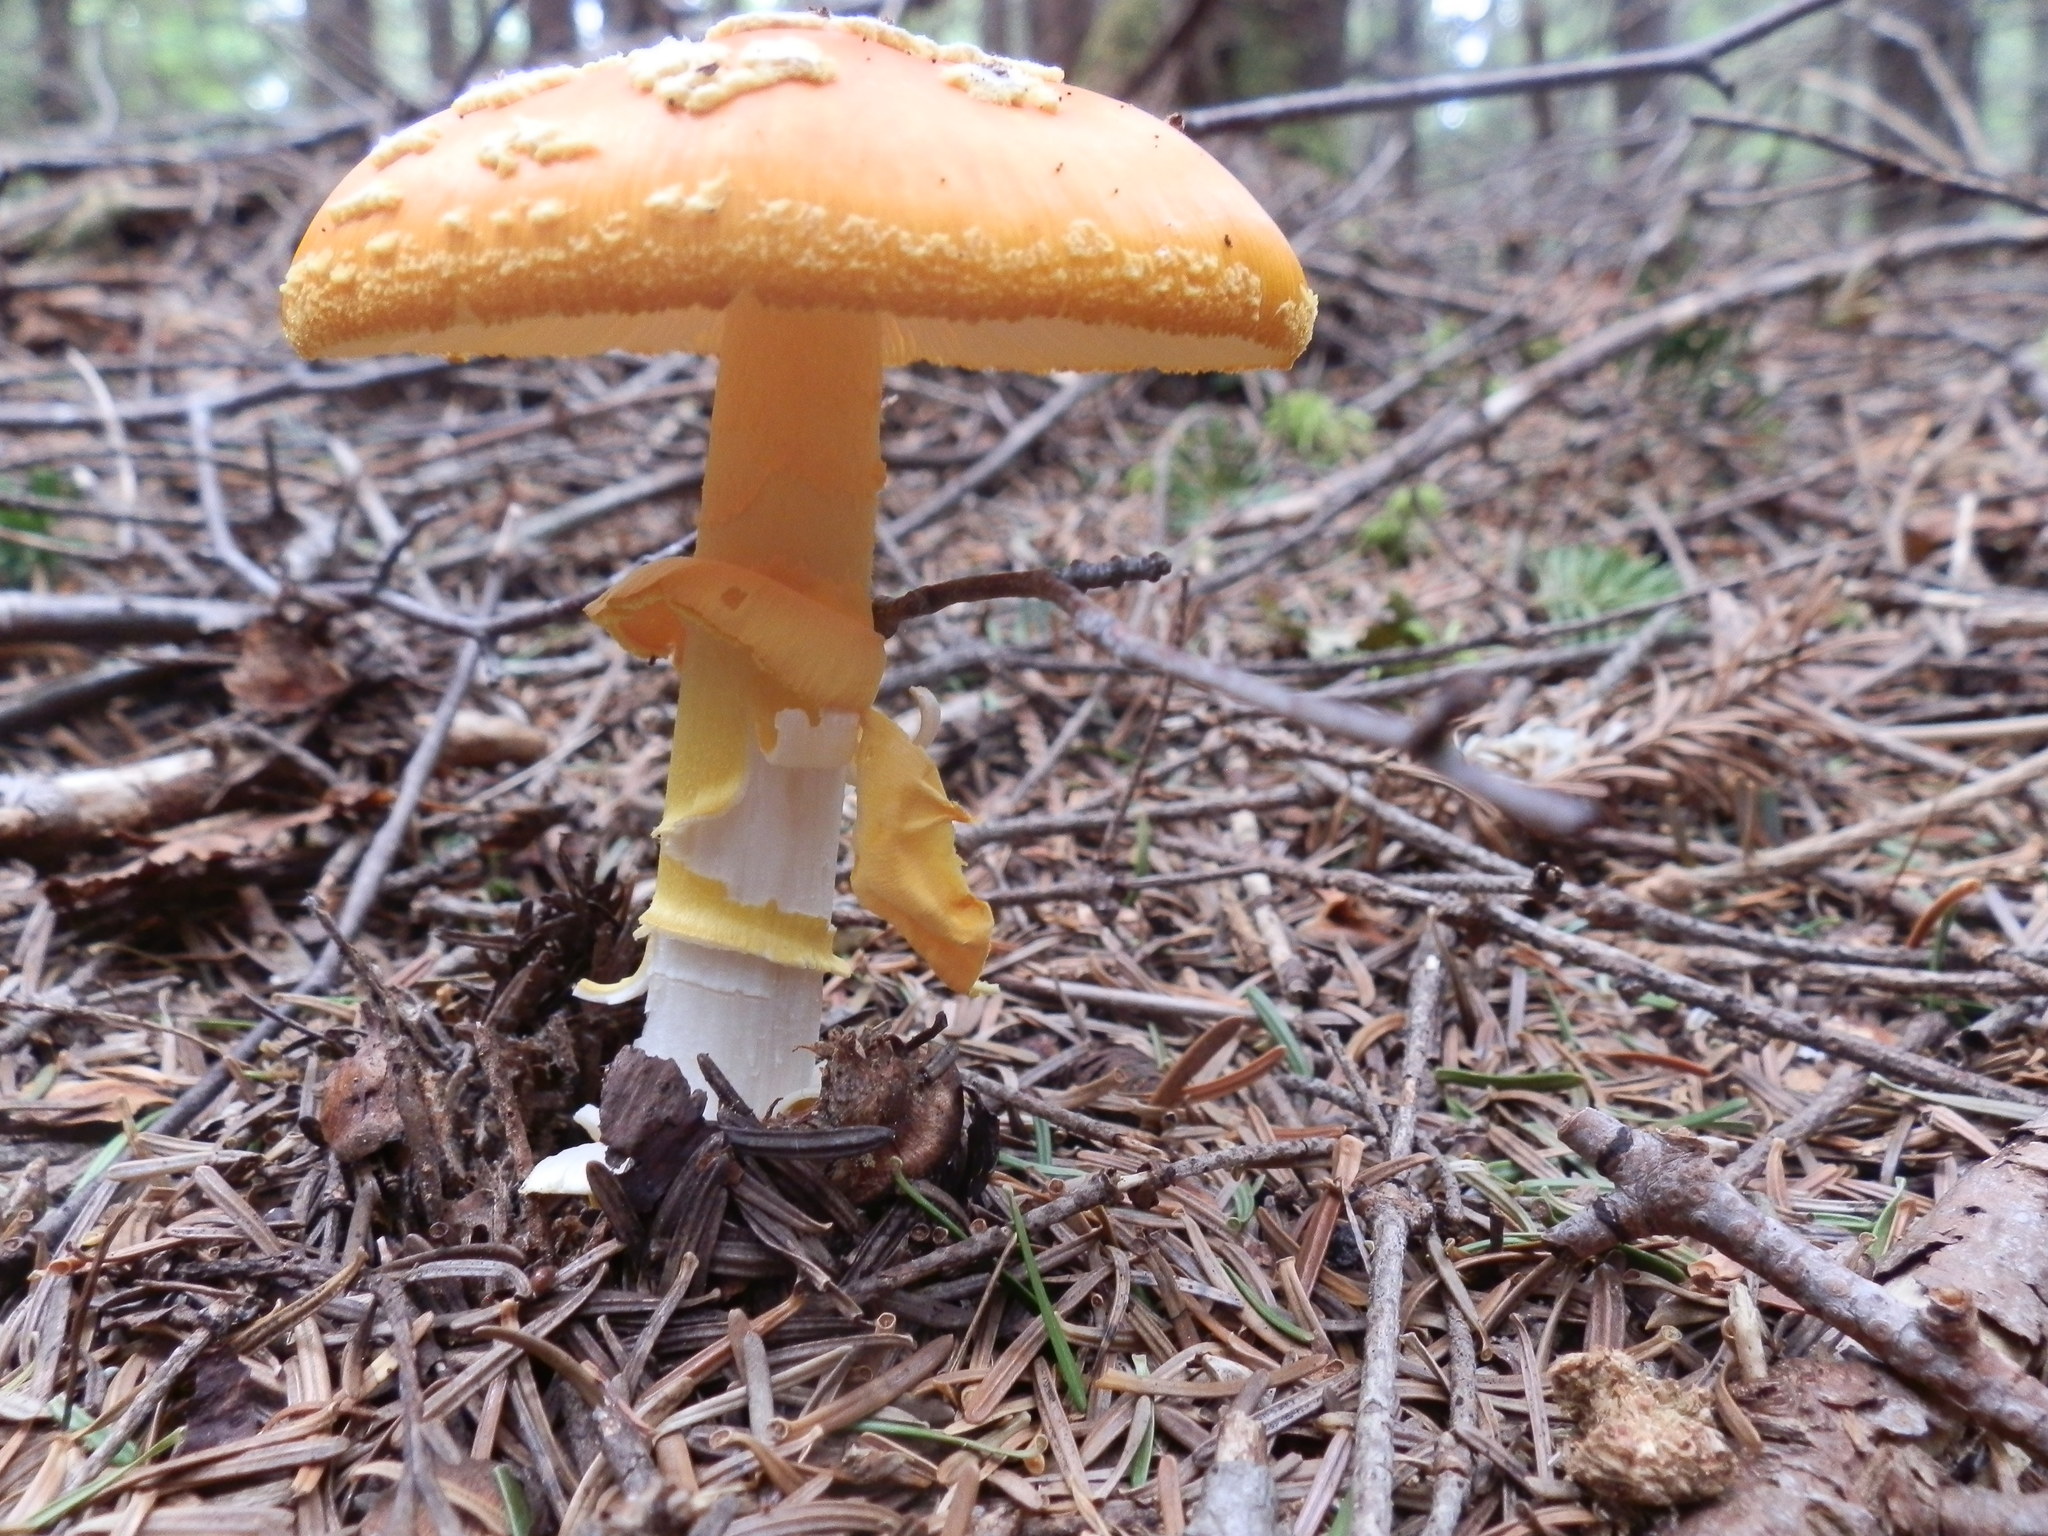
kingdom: Fungi
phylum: Basidiomycota
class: Agaricomycetes
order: Agaricales
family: Amanitaceae
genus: Amanita
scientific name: Amanita flavoconia
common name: Yellow patches
